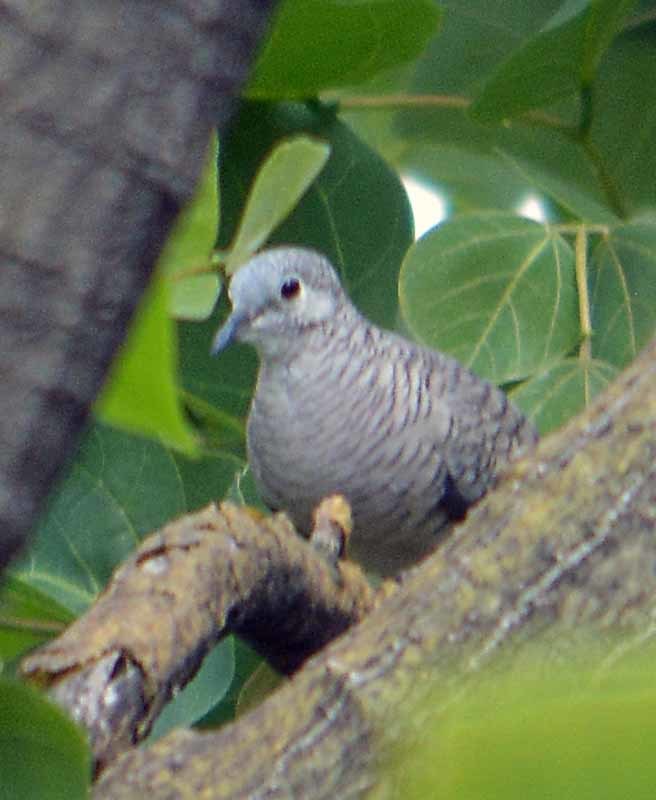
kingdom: Animalia
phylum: Chordata
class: Aves
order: Columbiformes
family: Columbidae
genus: Columbina
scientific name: Columbina inca
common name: Inca dove
